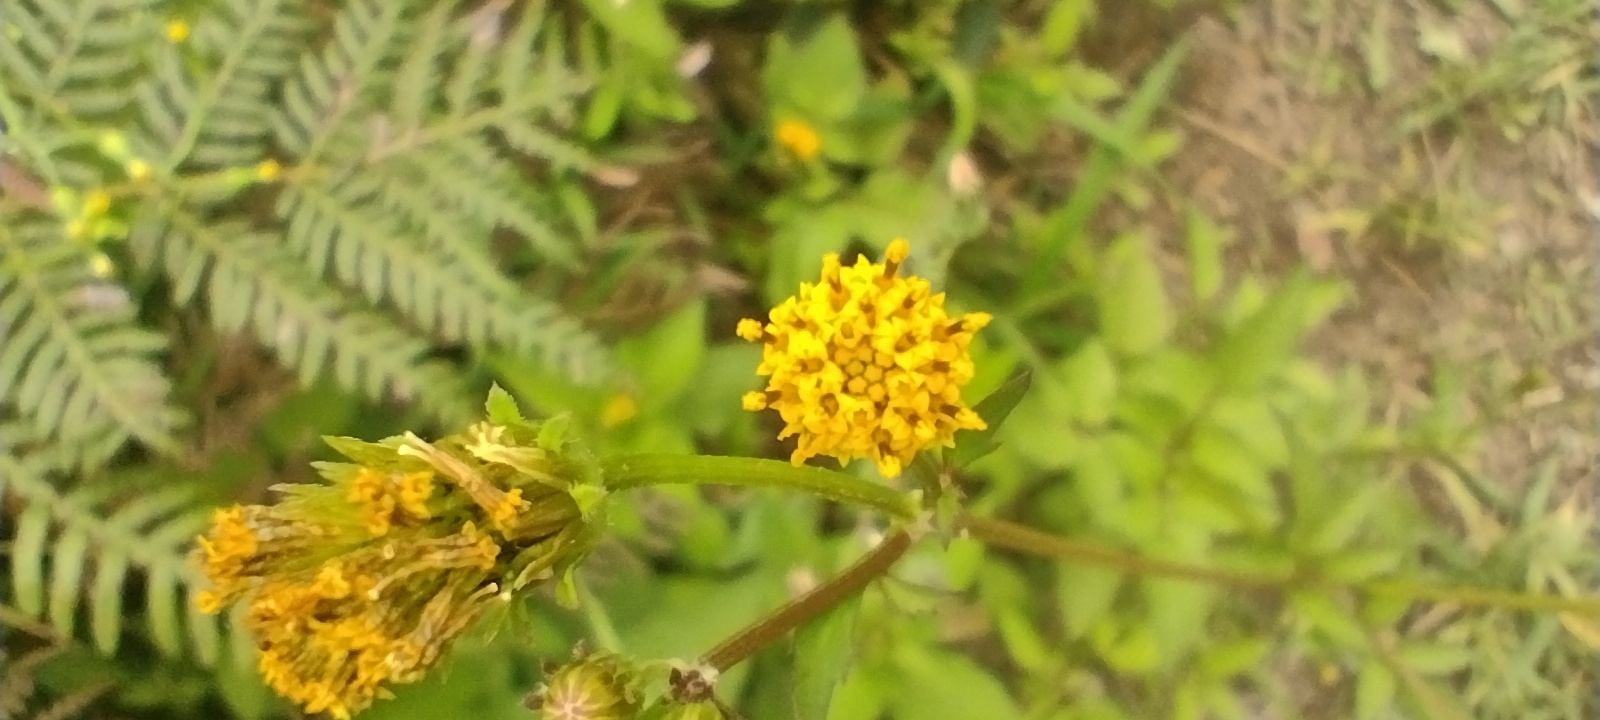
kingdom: Plantae
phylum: Tracheophyta
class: Magnoliopsida
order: Asterales
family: Asteraceae
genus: Bidens
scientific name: Bidens pilosa
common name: Black-jack
